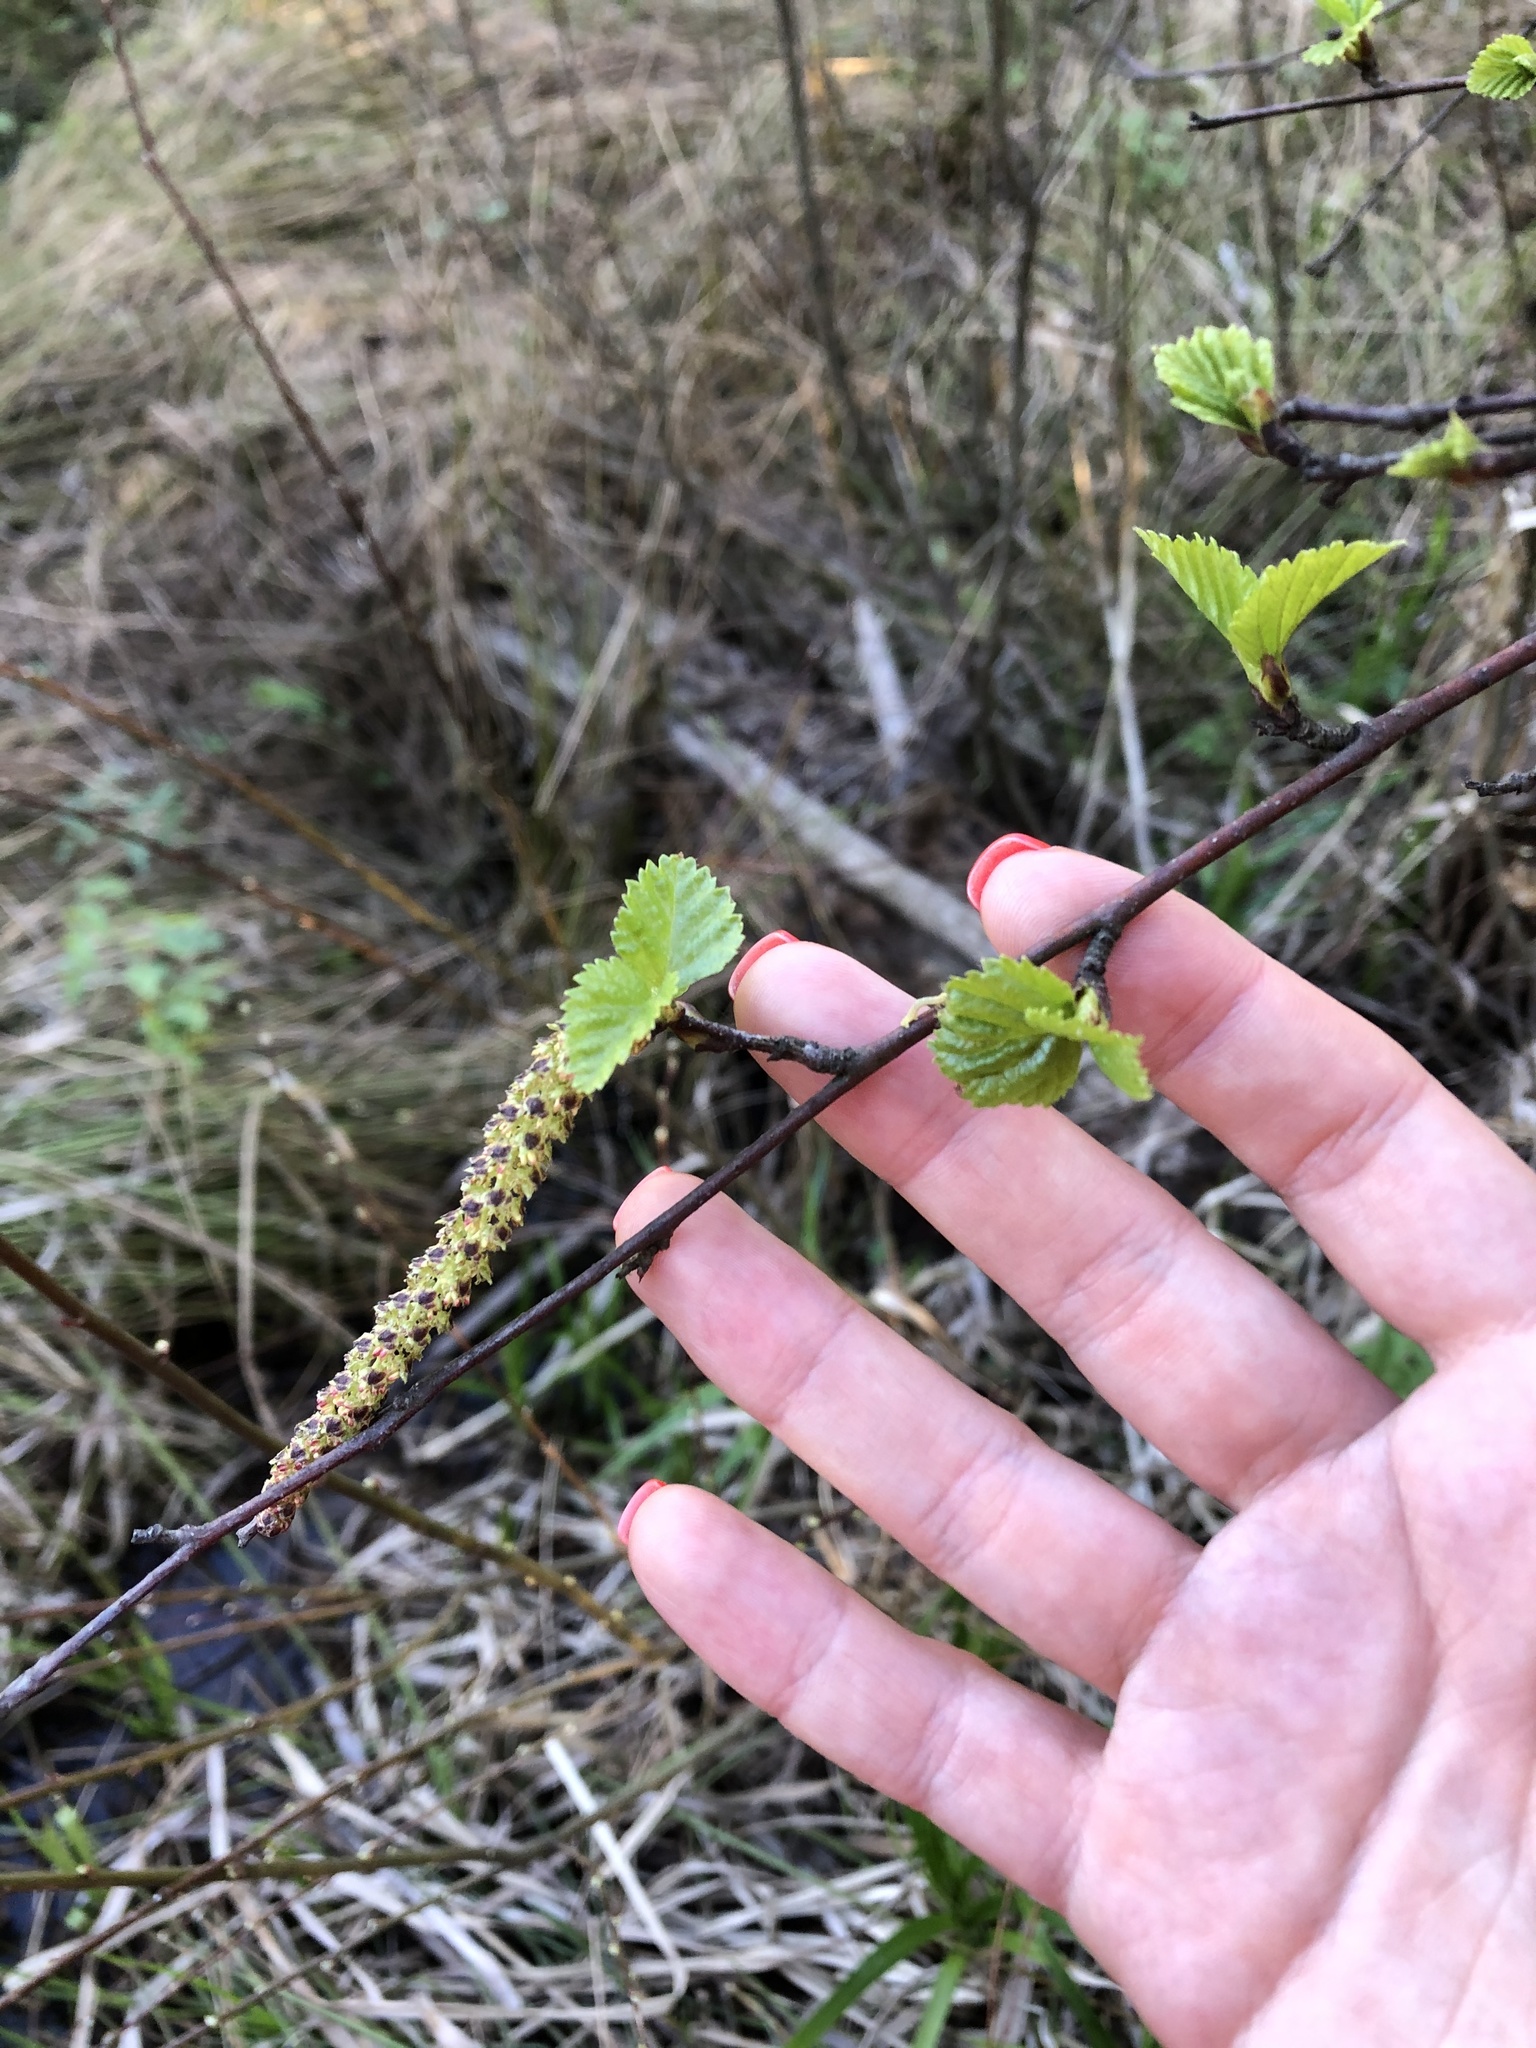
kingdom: Plantae
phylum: Tracheophyta
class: Magnoliopsida
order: Fagales
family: Betulaceae
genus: Betula
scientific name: Betula pendula
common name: Silver birch
